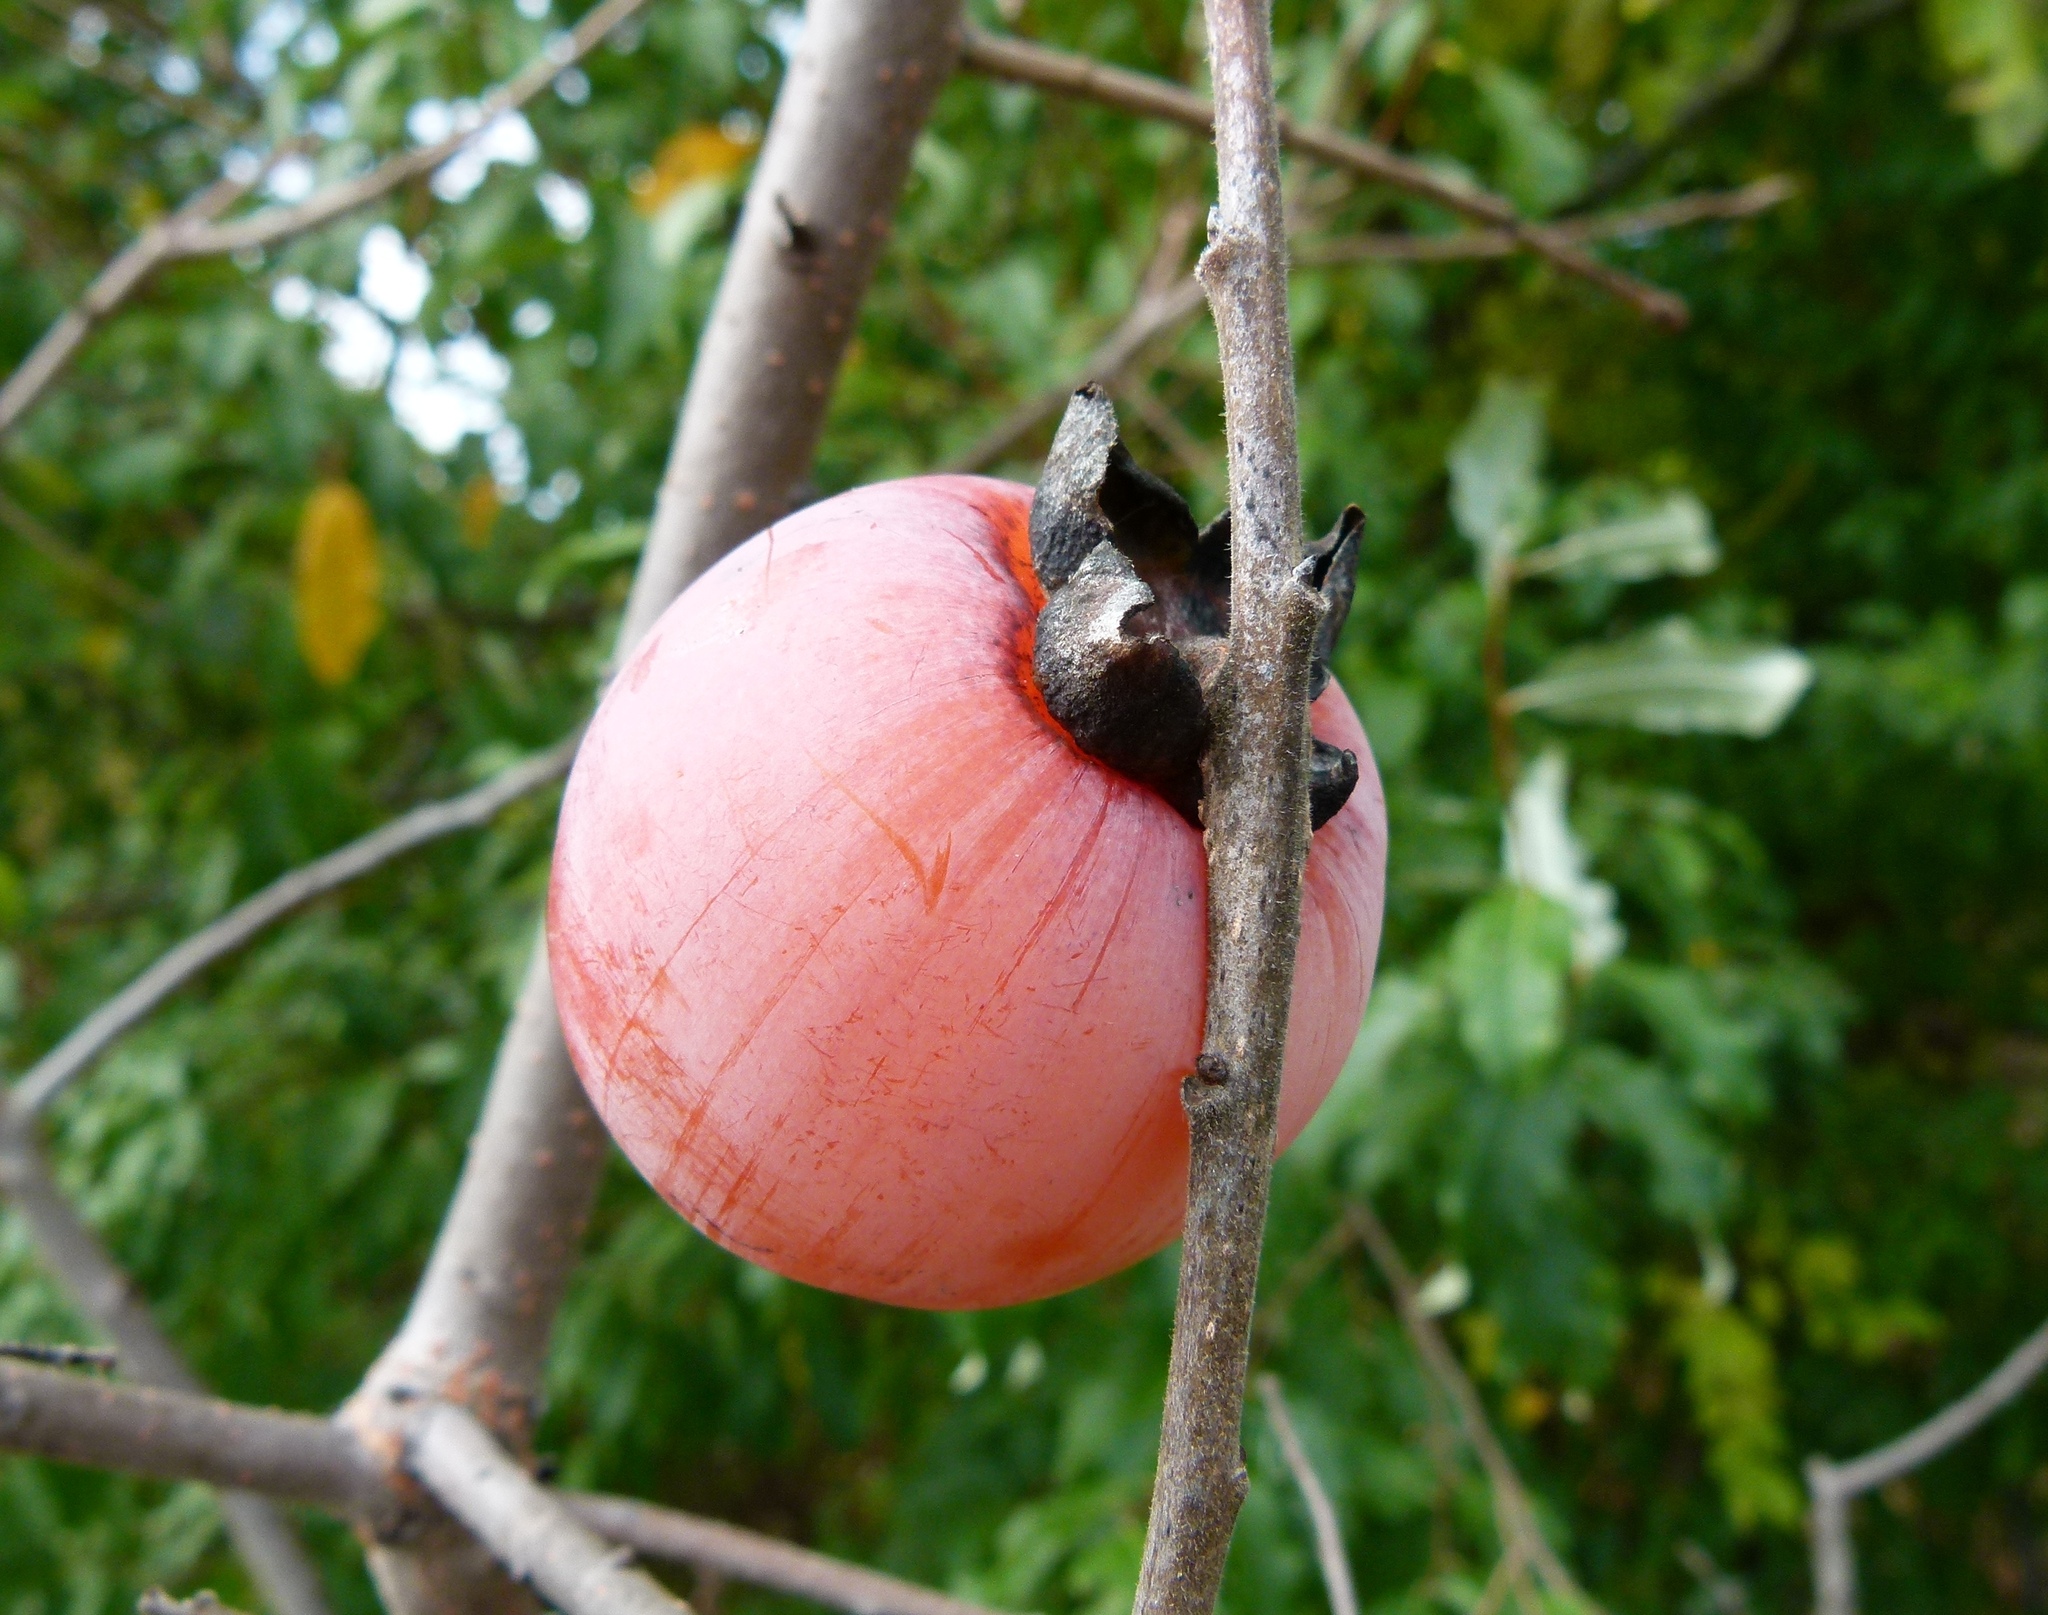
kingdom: Plantae
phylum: Tracheophyta
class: Magnoliopsida
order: Ericales
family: Ebenaceae
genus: Diospyros
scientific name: Diospyros virginiana
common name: Persimmon
